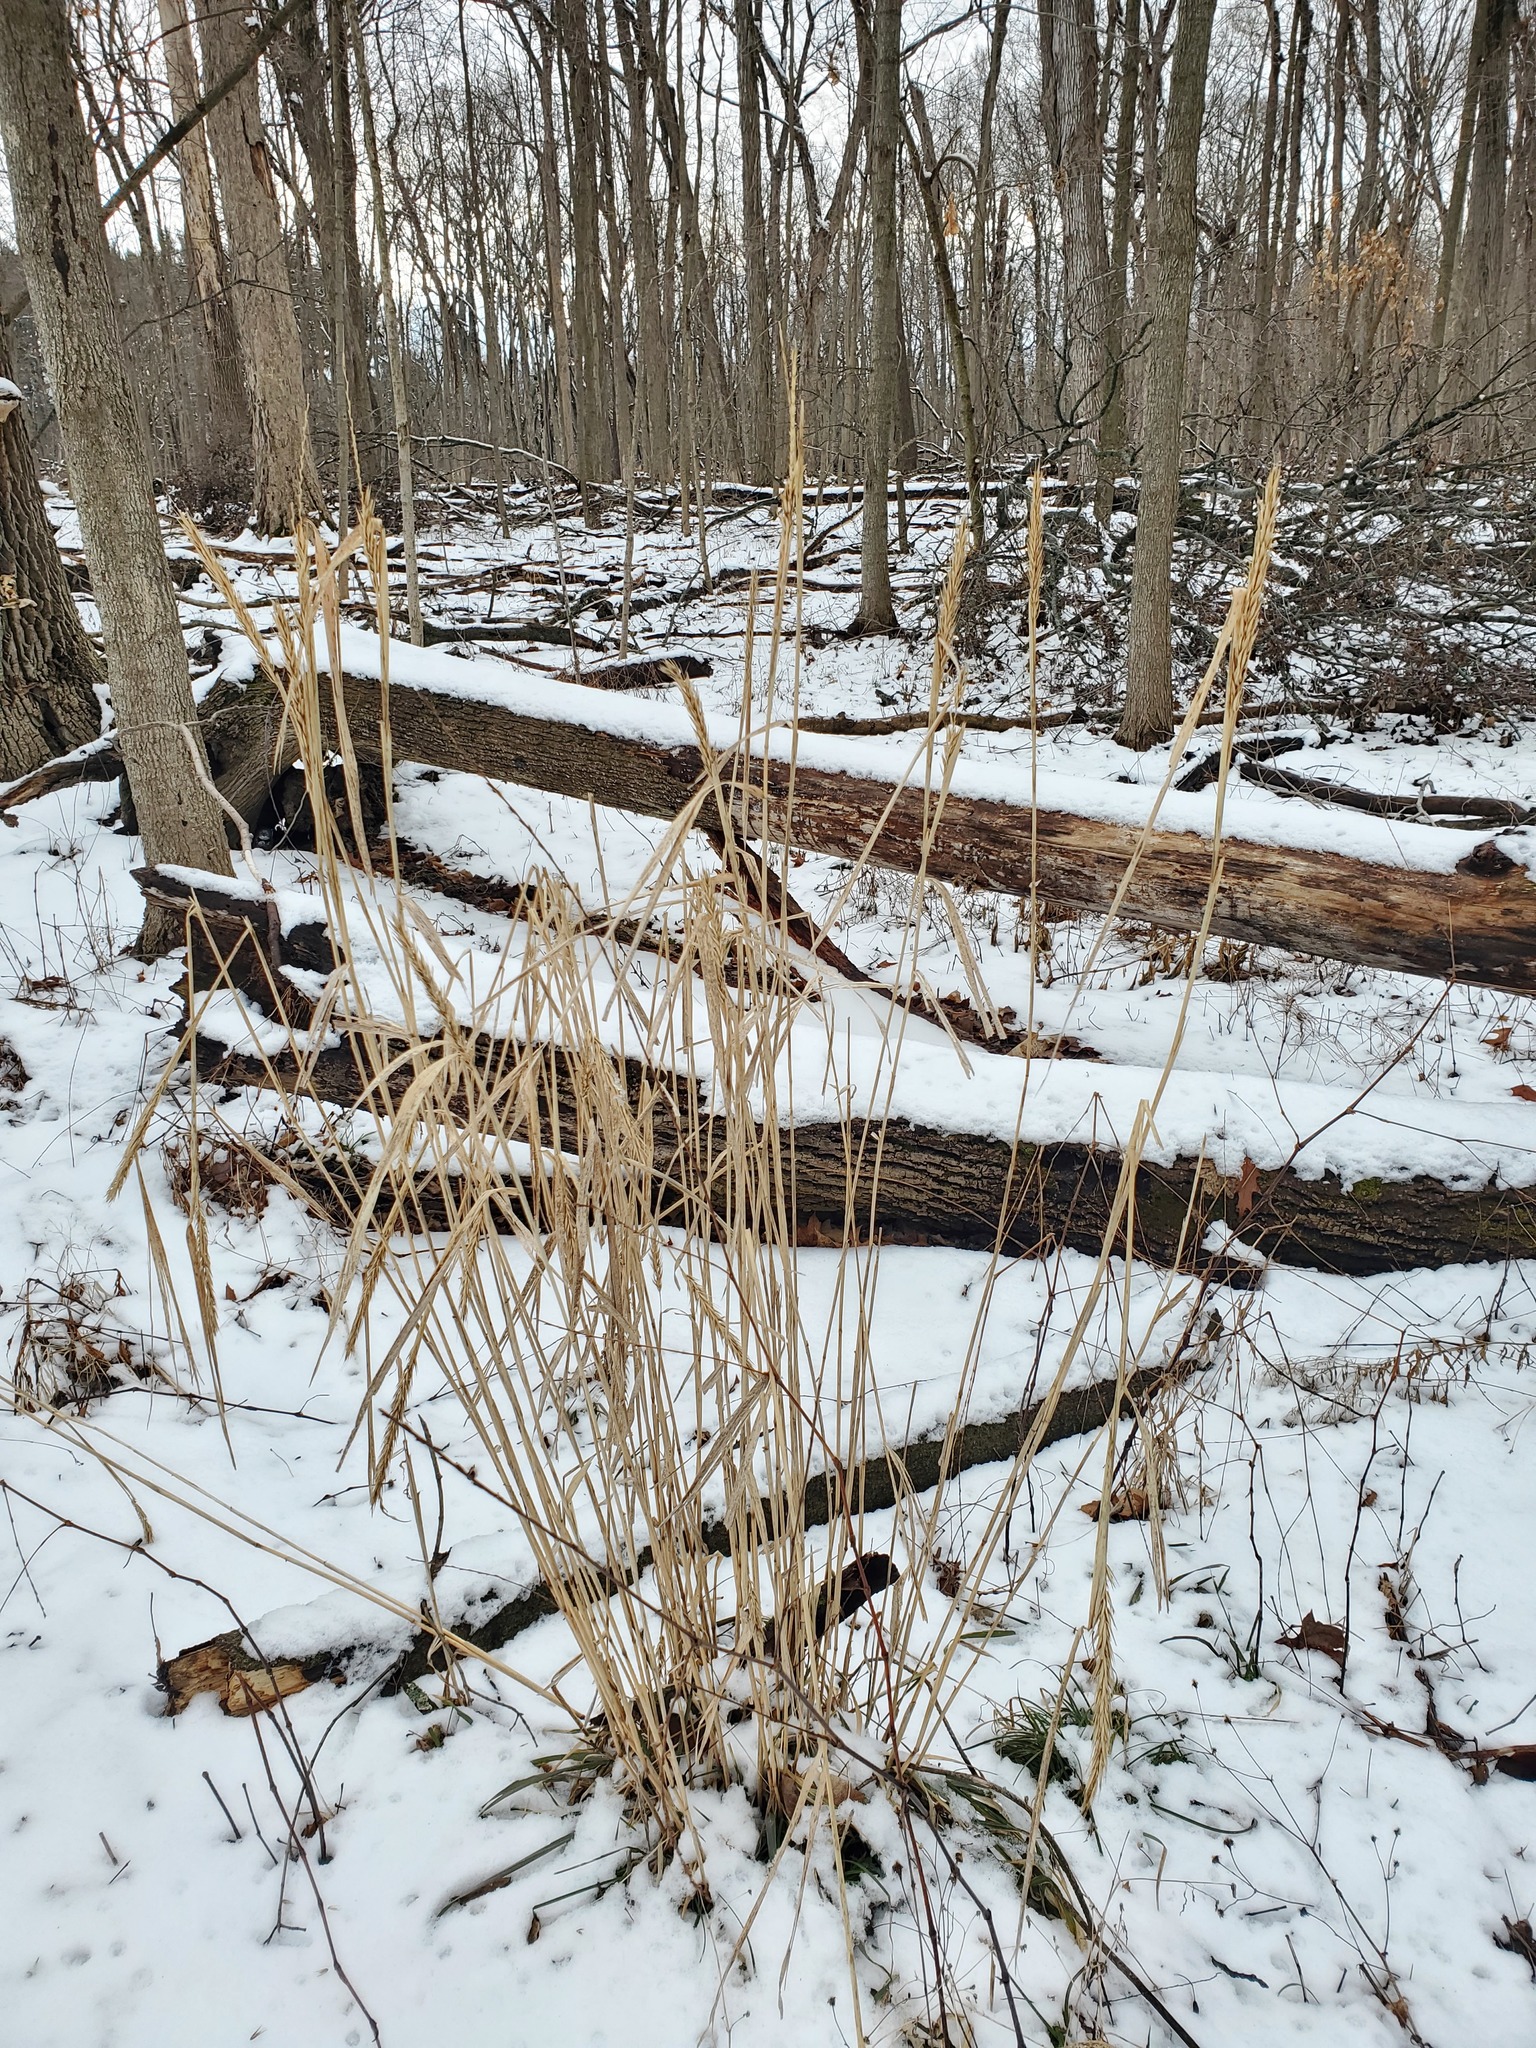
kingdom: Plantae
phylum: Tracheophyta
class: Liliopsida
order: Poales
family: Poaceae
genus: Elymus
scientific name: Elymus virginicus
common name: Common eastern wildrye
